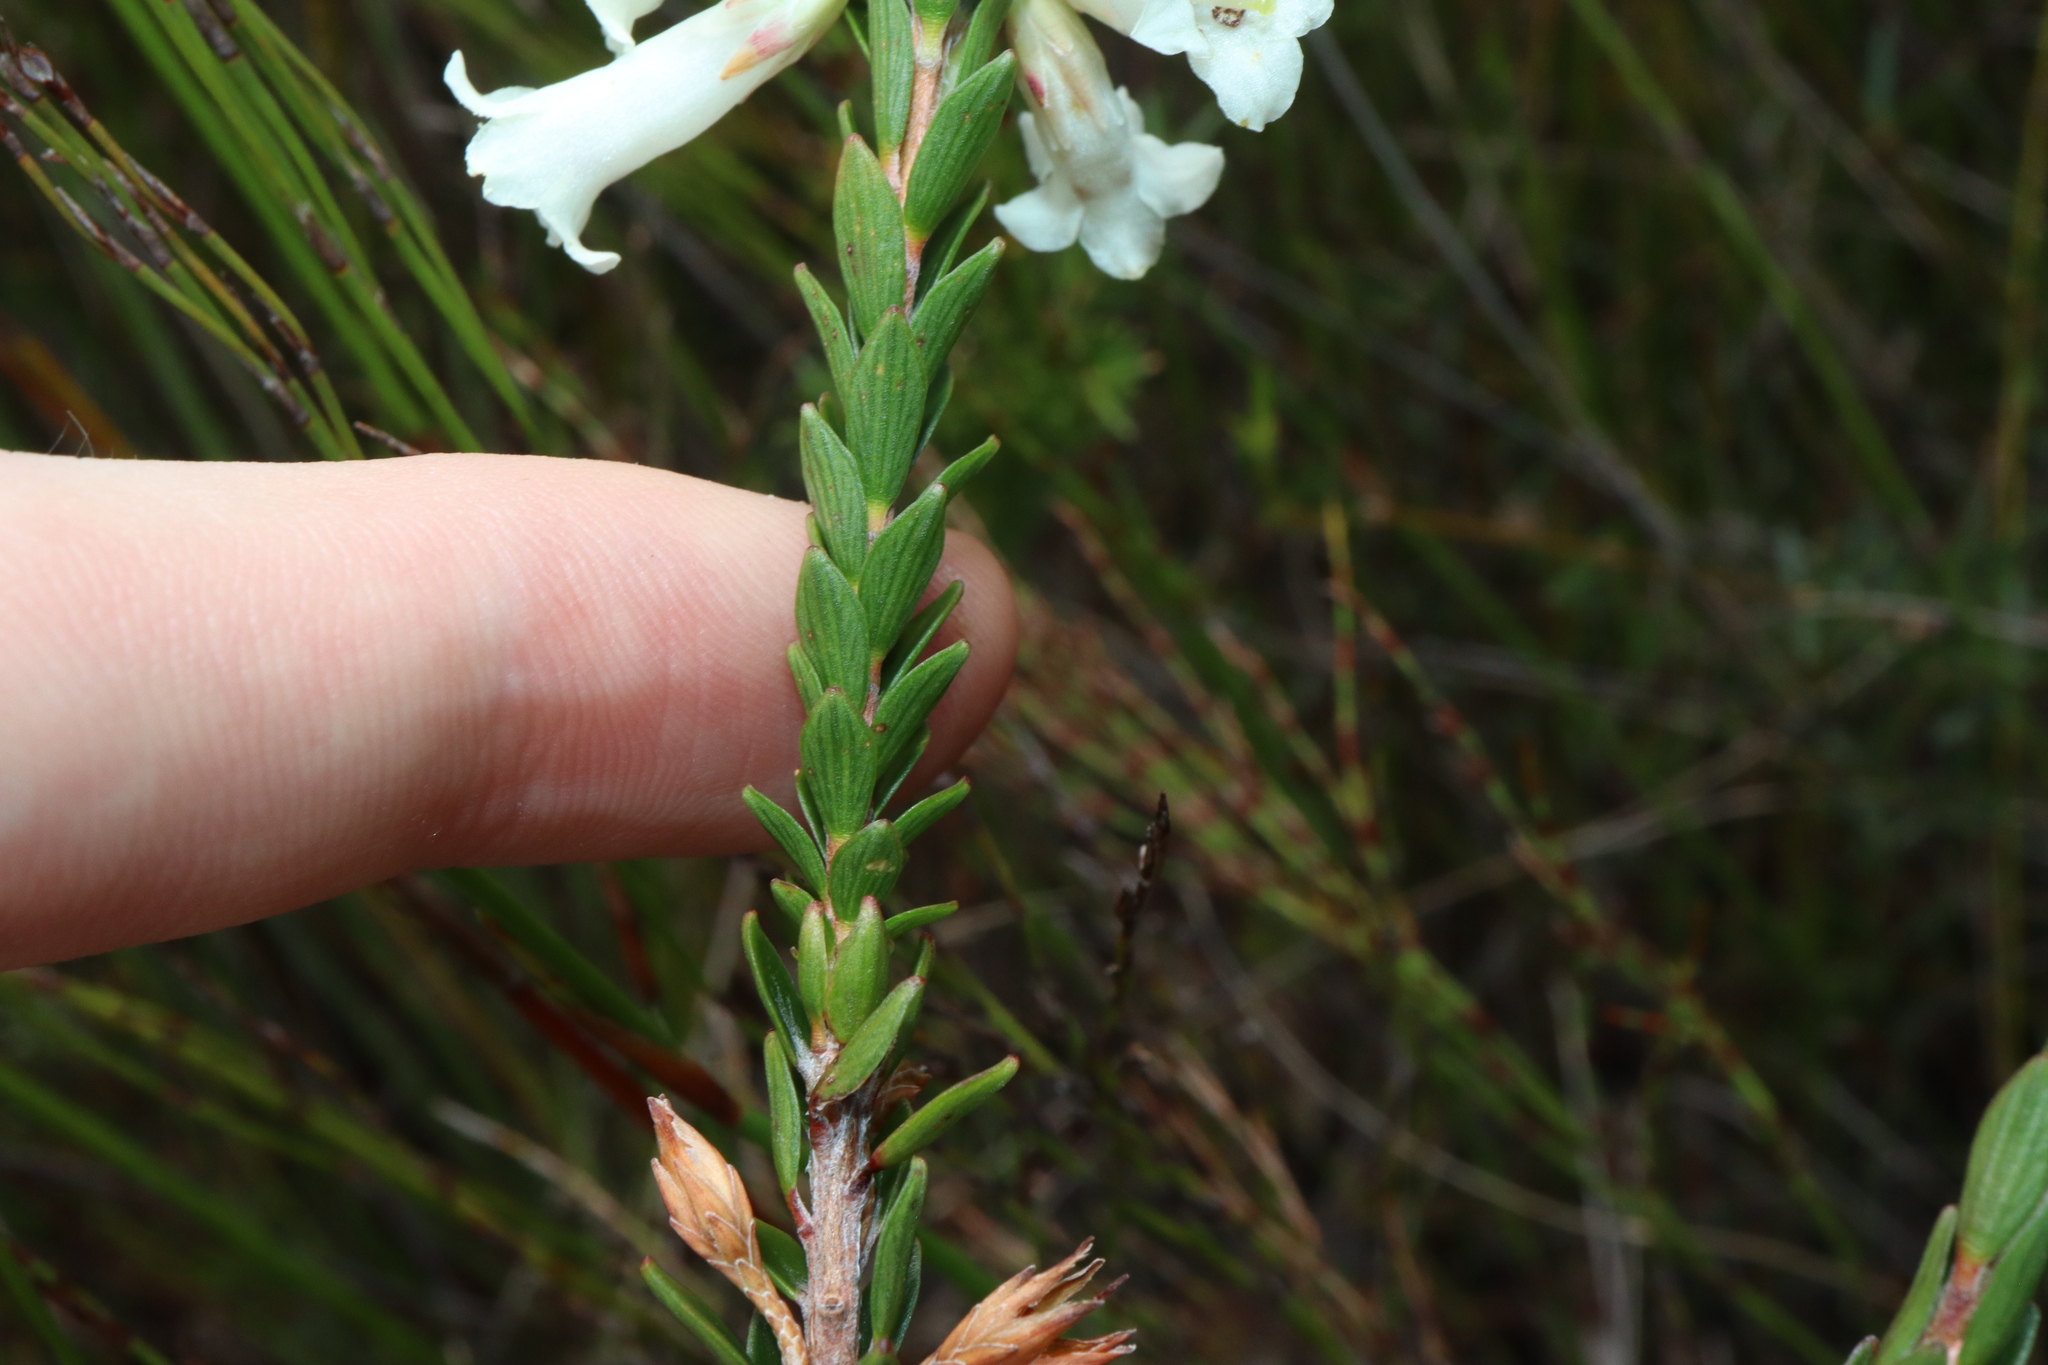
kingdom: Plantae
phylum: Tracheophyta
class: Magnoliopsida
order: Ericales
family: Ericaceae
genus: Epacris
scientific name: Epacris obtusifolia
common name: Blunt-leaf australian-heath
